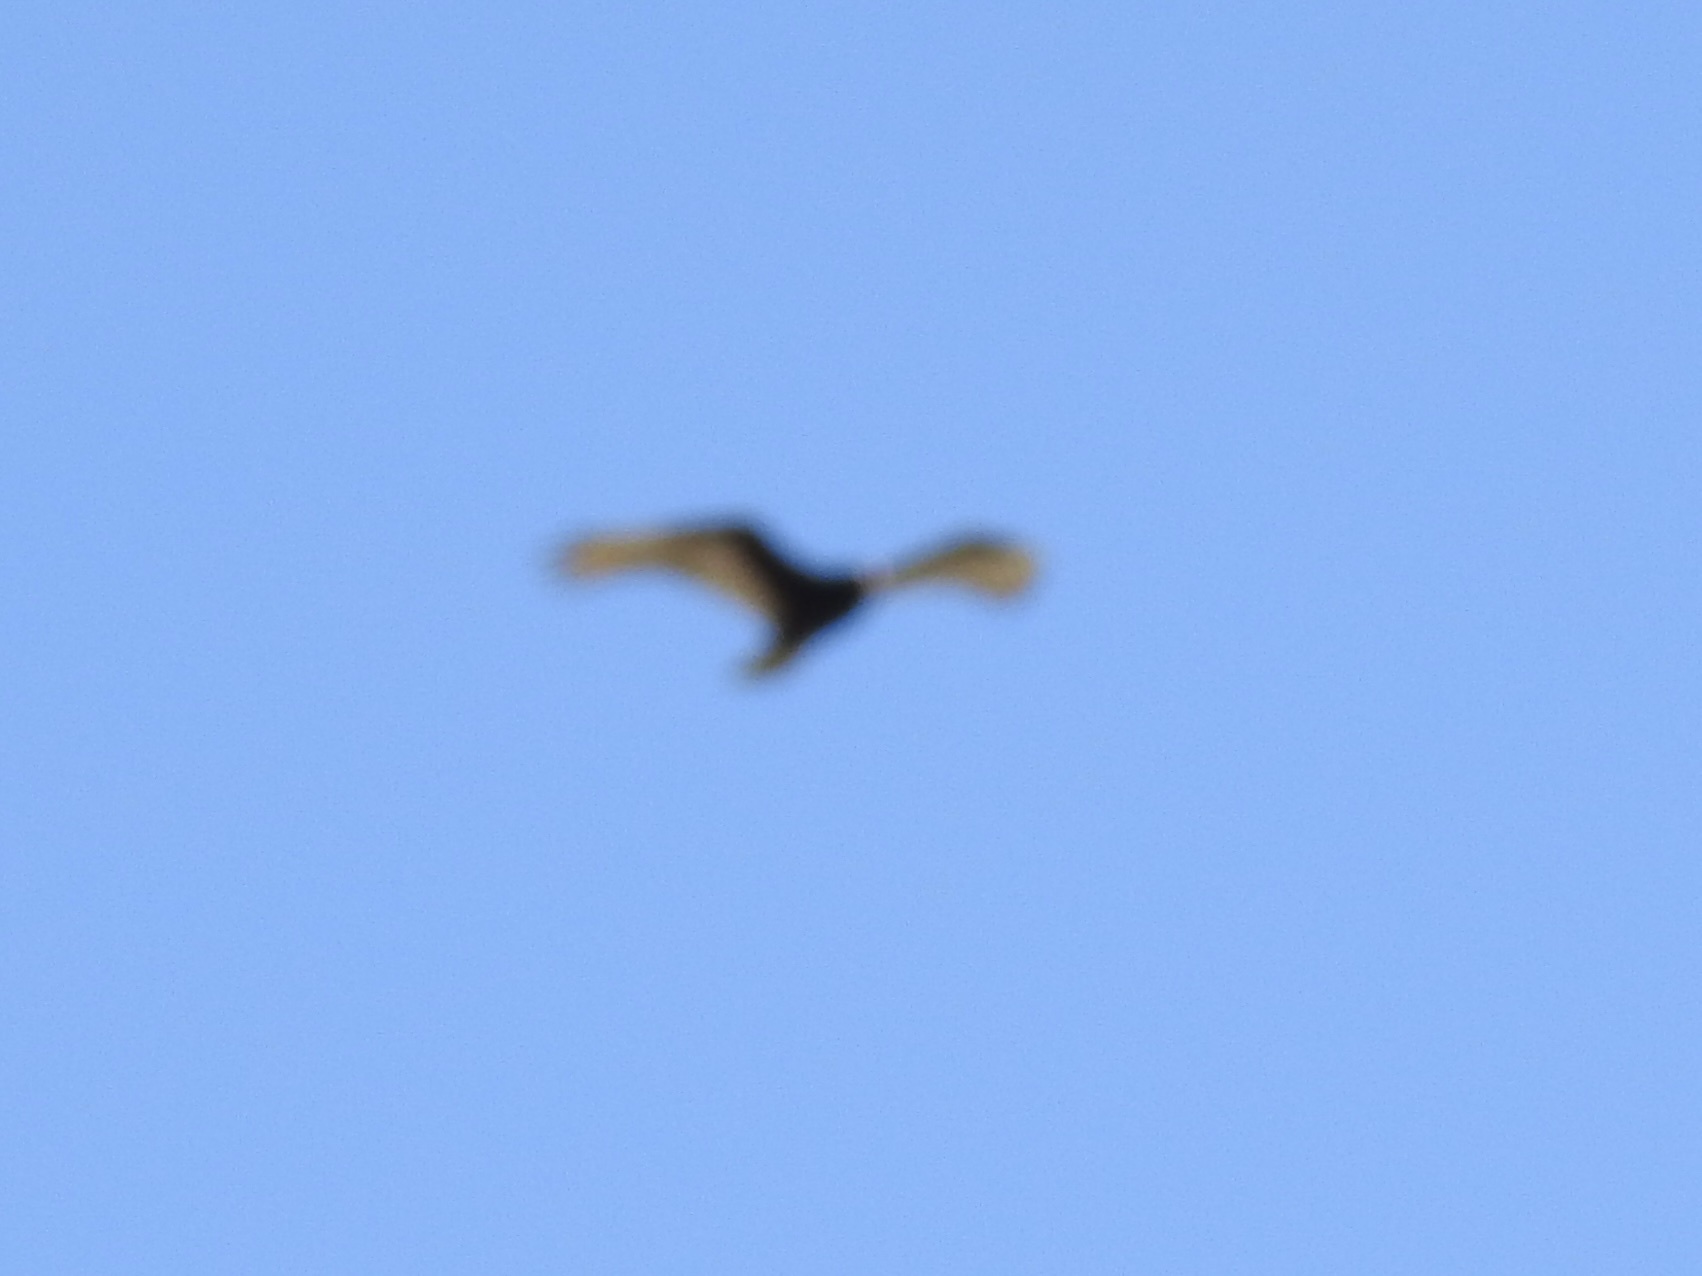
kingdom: Animalia
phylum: Chordata
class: Aves
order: Accipitriformes
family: Cathartidae
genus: Cathartes
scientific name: Cathartes aura
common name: Turkey vulture
